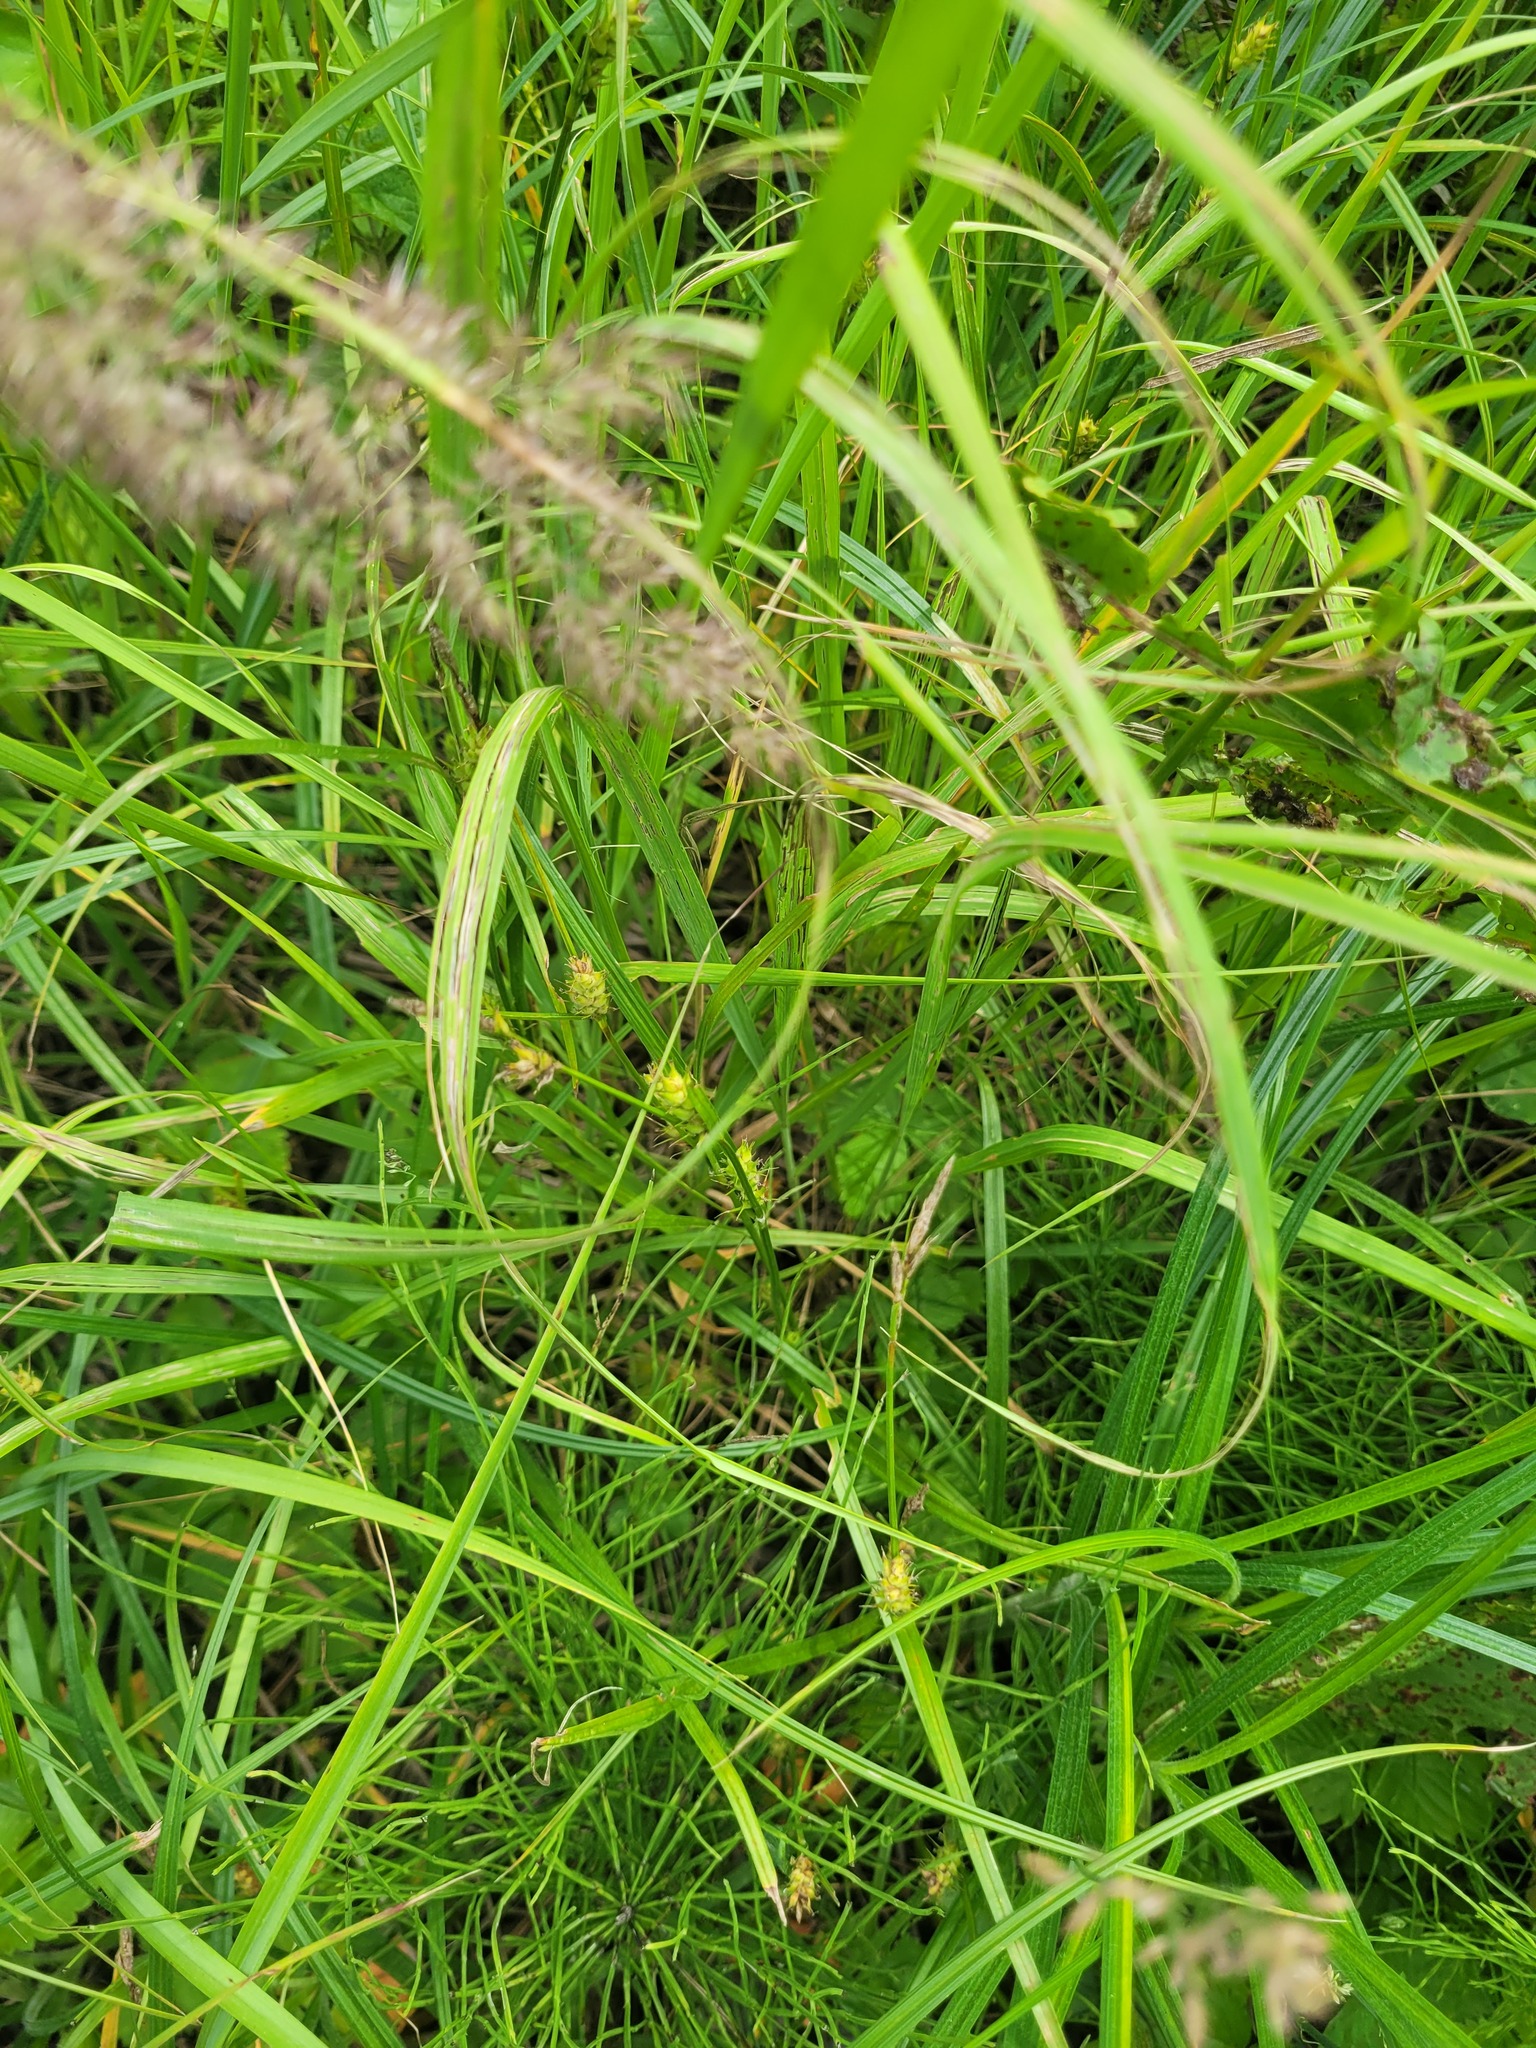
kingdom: Plantae
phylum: Tracheophyta
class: Liliopsida
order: Poales
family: Cyperaceae
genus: Carex
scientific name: Carex hirta
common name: Hairy sedge
